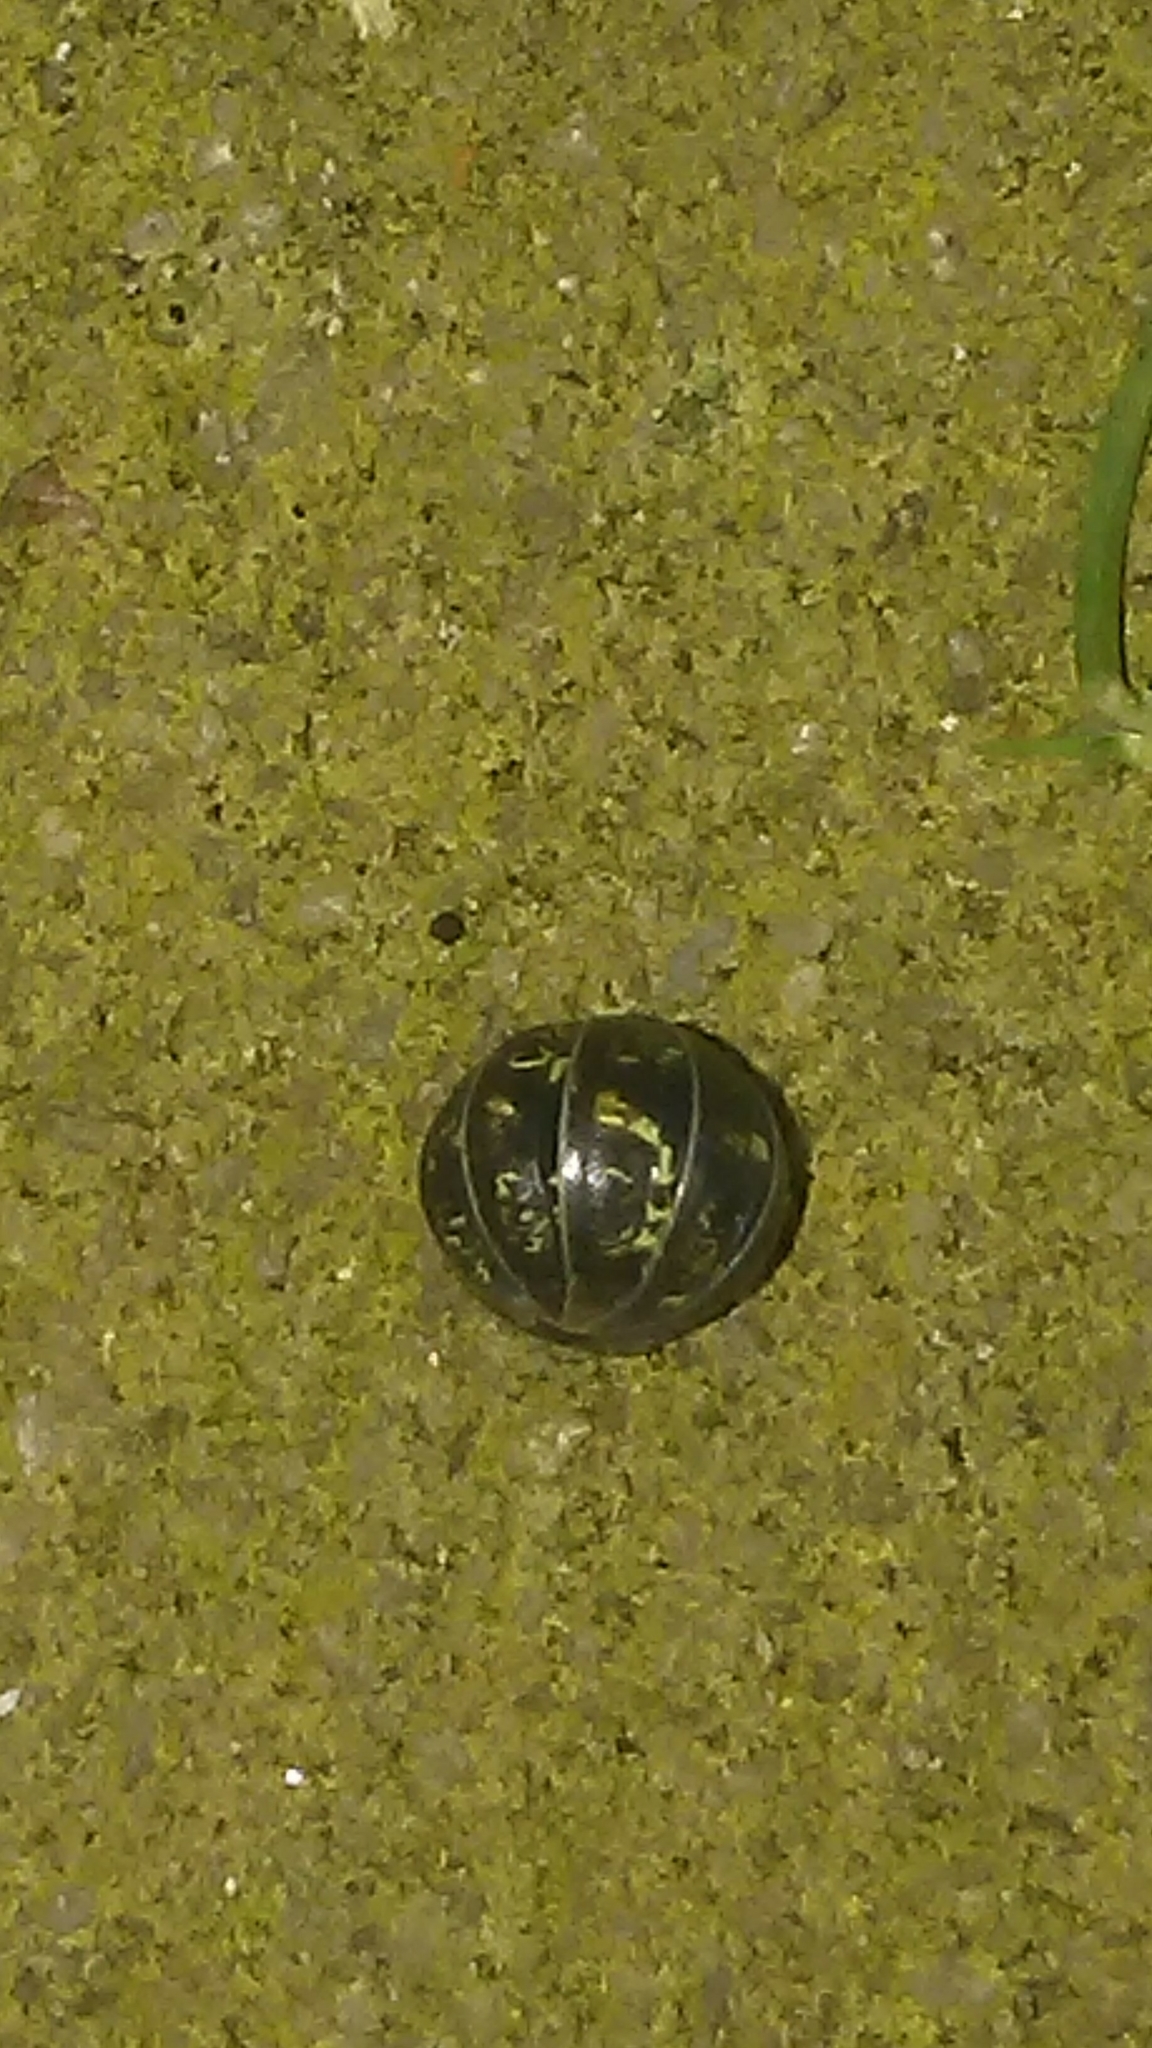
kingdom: Animalia
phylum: Arthropoda
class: Malacostraca
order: Isopoda
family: Armadillidiidae
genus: Armadillidium
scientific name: Armadillidium vulgare
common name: Common pill woodlouse
